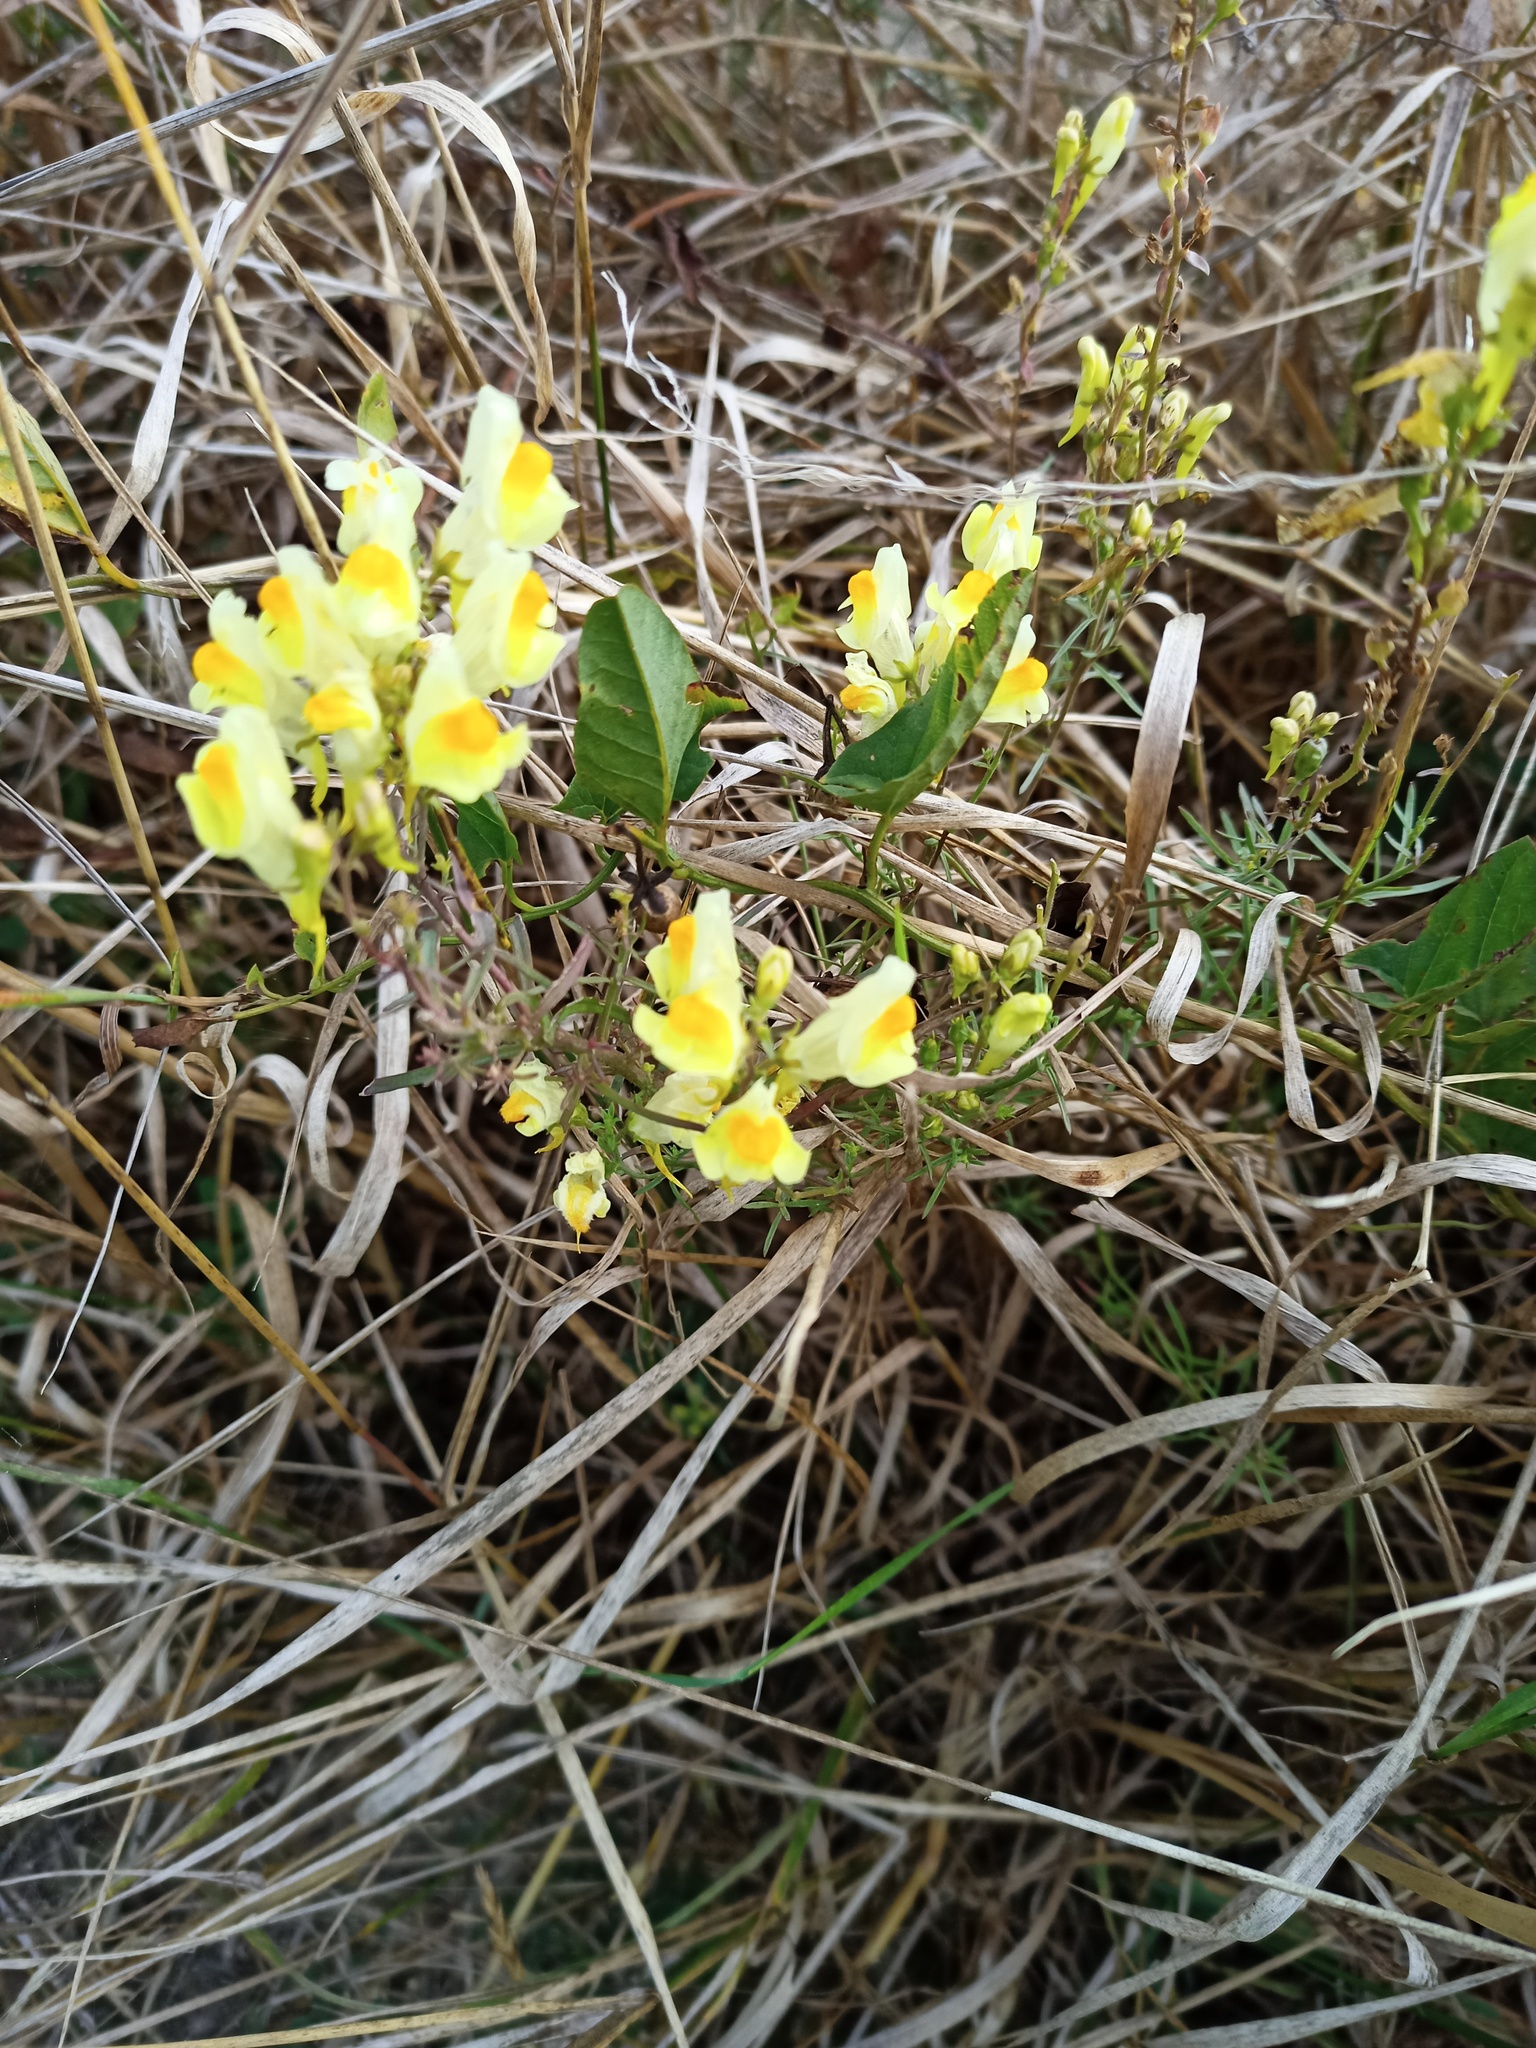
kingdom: Plantae
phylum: Tracheophyta
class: Magnoliopsida
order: Lamiales
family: Plantaginaceae
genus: Linaria
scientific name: Linaria vulgaris
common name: Butter and eggs
